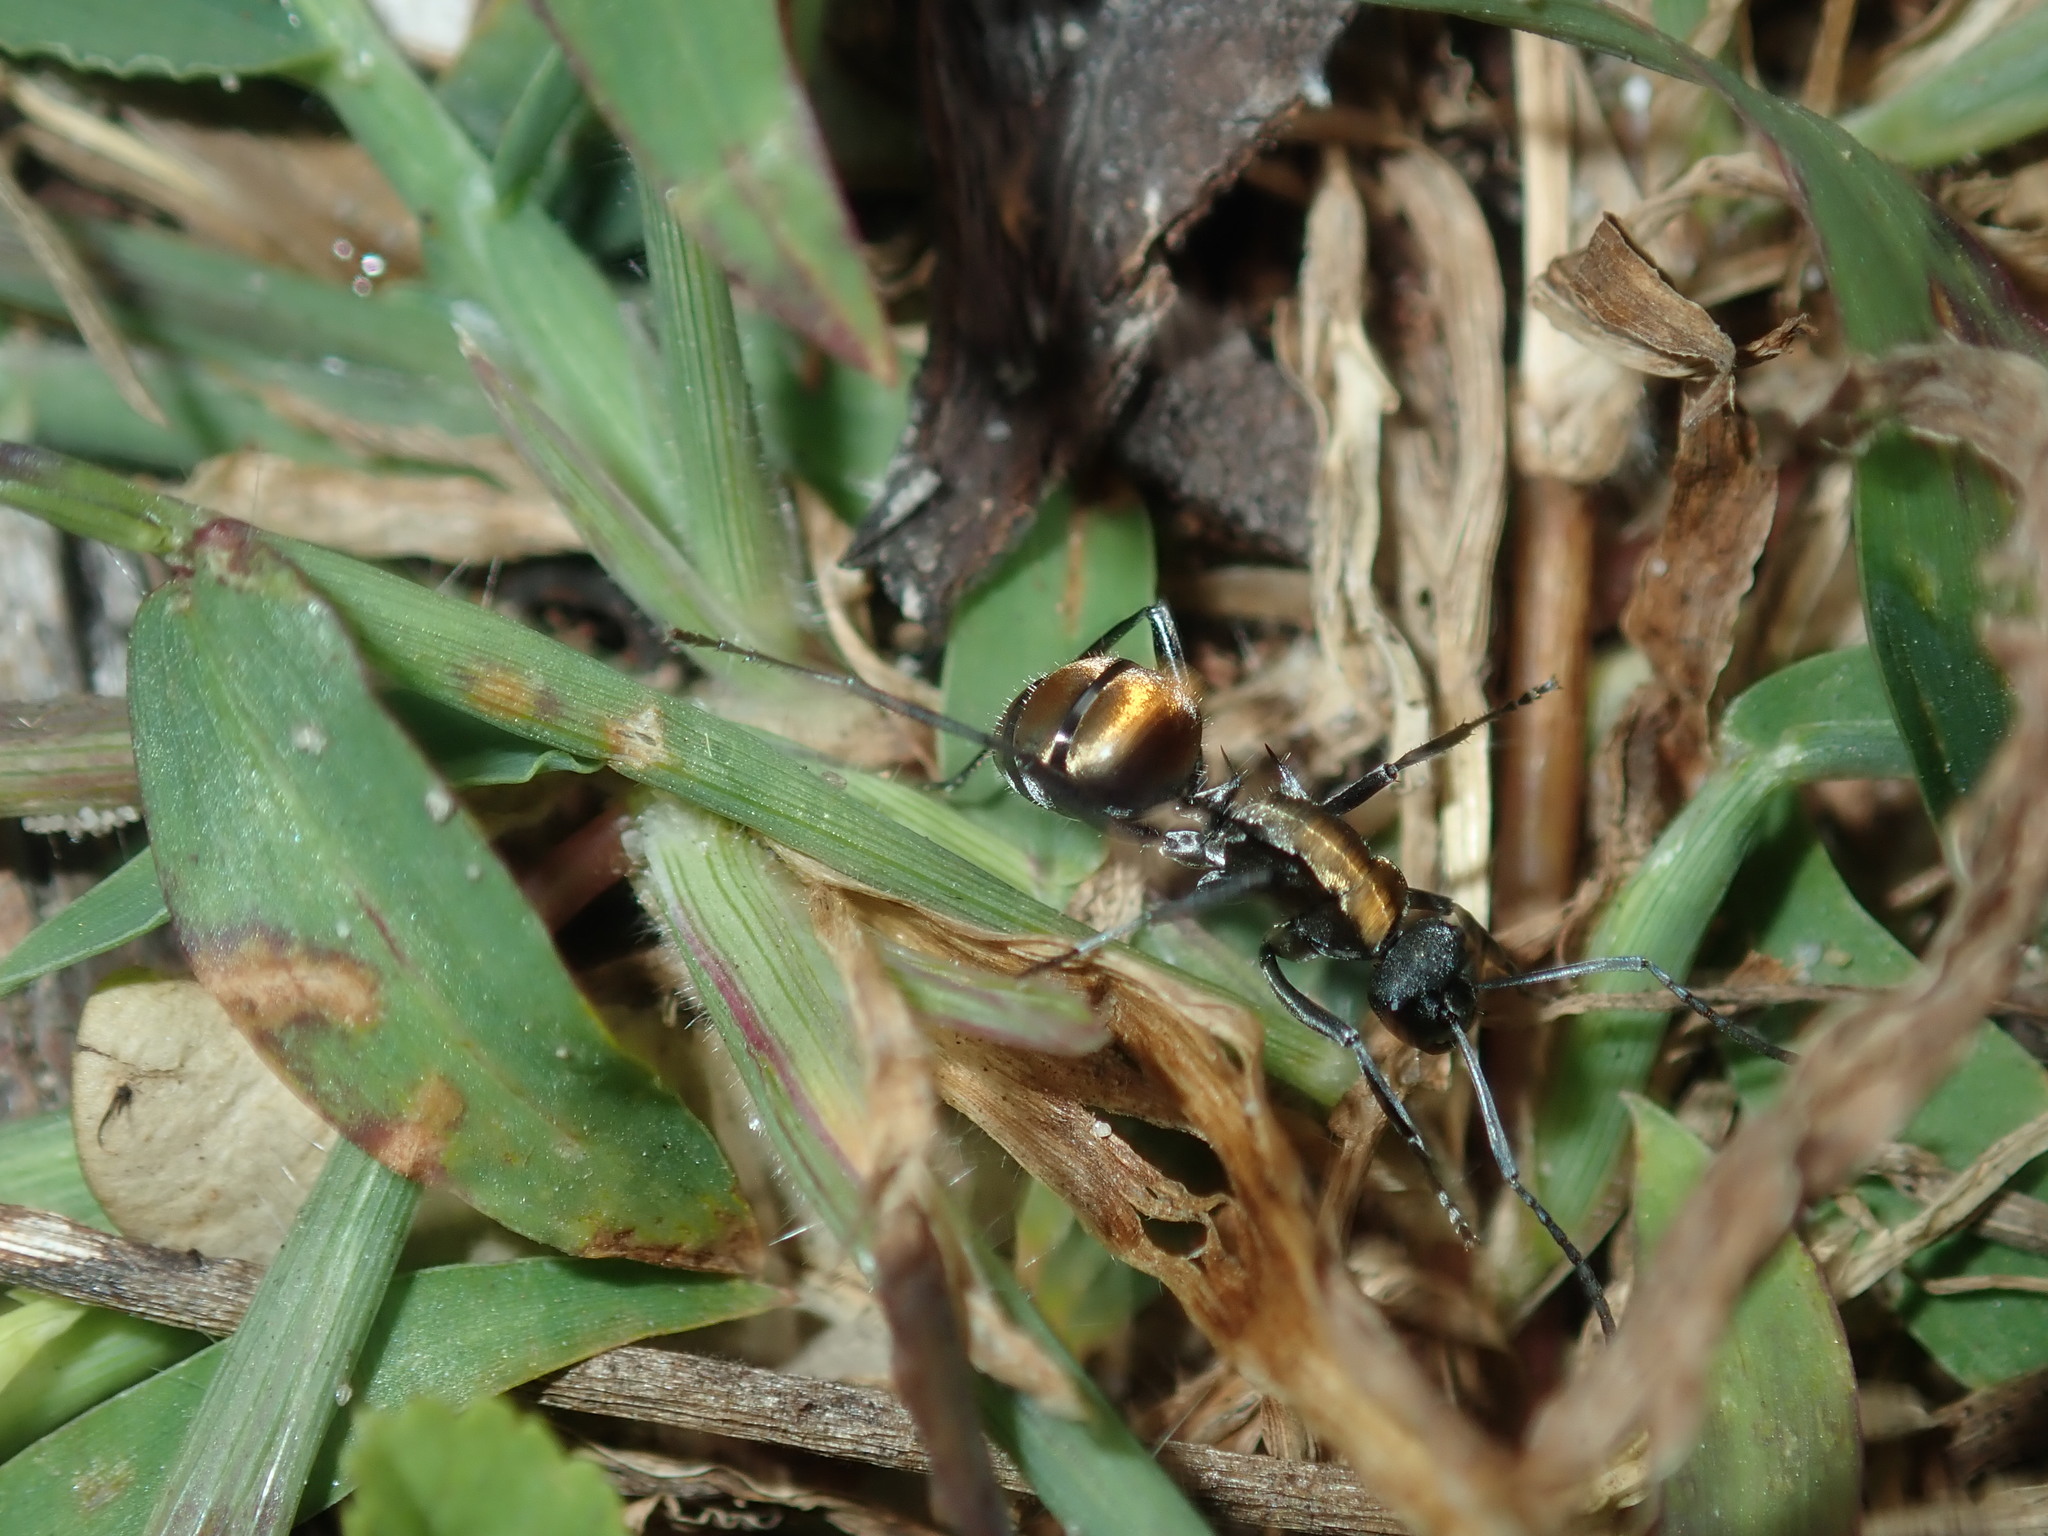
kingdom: Animalia
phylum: Arthropoda
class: Insecta
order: Hymenoptera
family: Formicidae
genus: Polyrhachis
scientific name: Polyrhachis ammon
